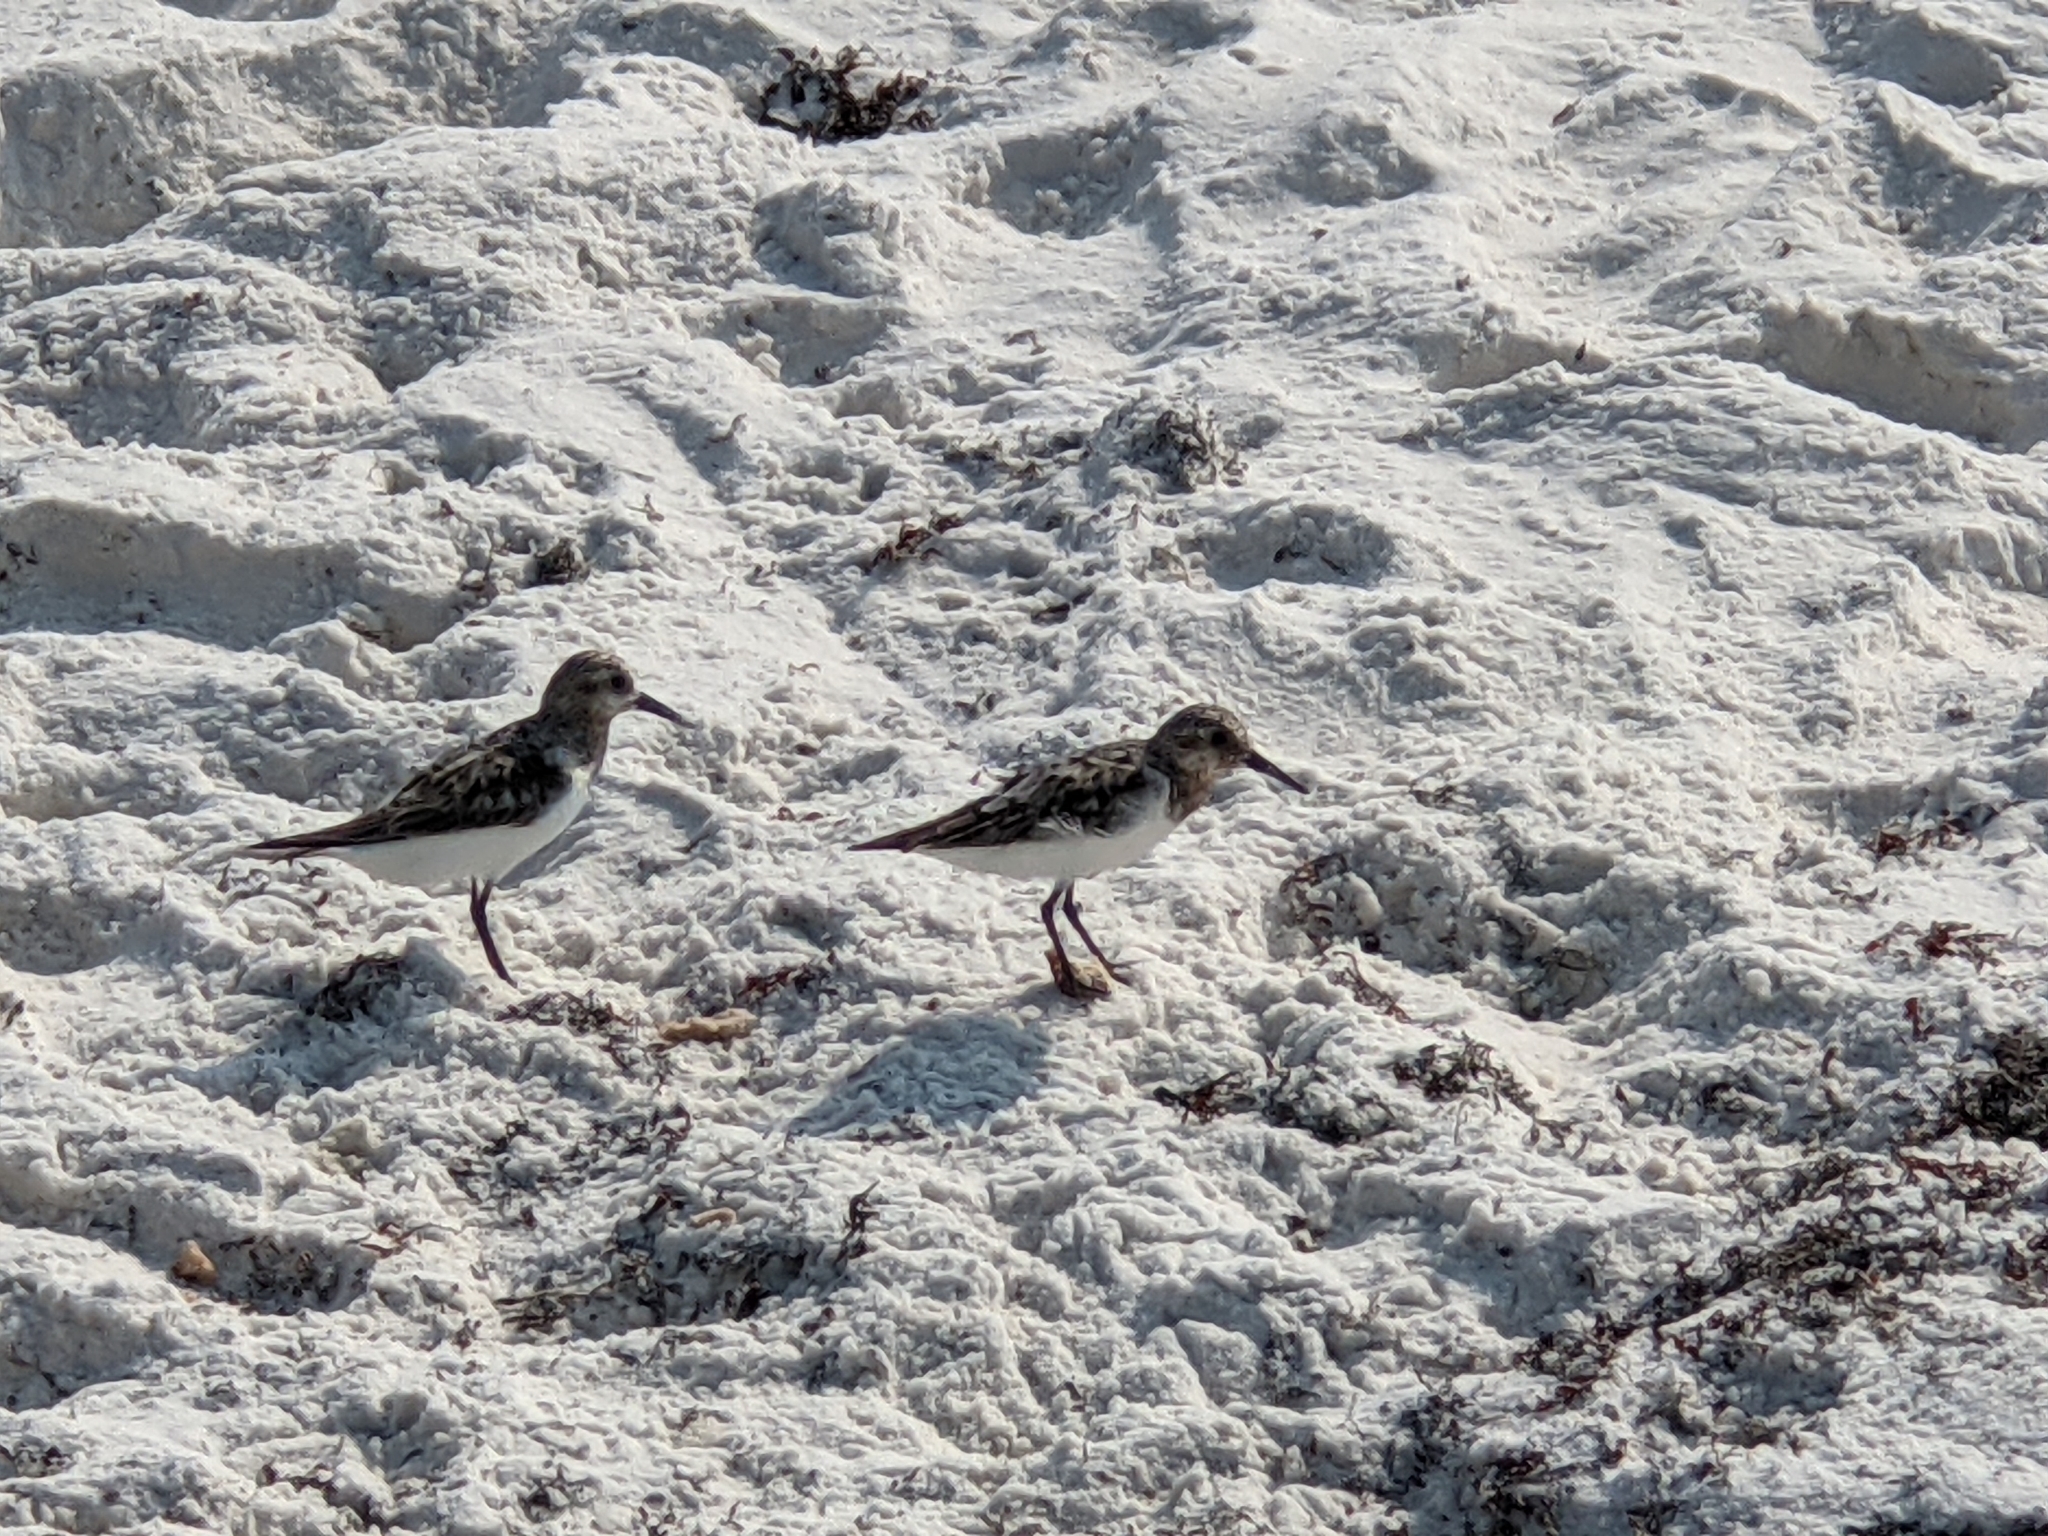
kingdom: Animalia
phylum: Chordata
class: Aves
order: Charadriiformes
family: Scolopacidae
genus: Calidris
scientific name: Calidris alba
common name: Sanderling
